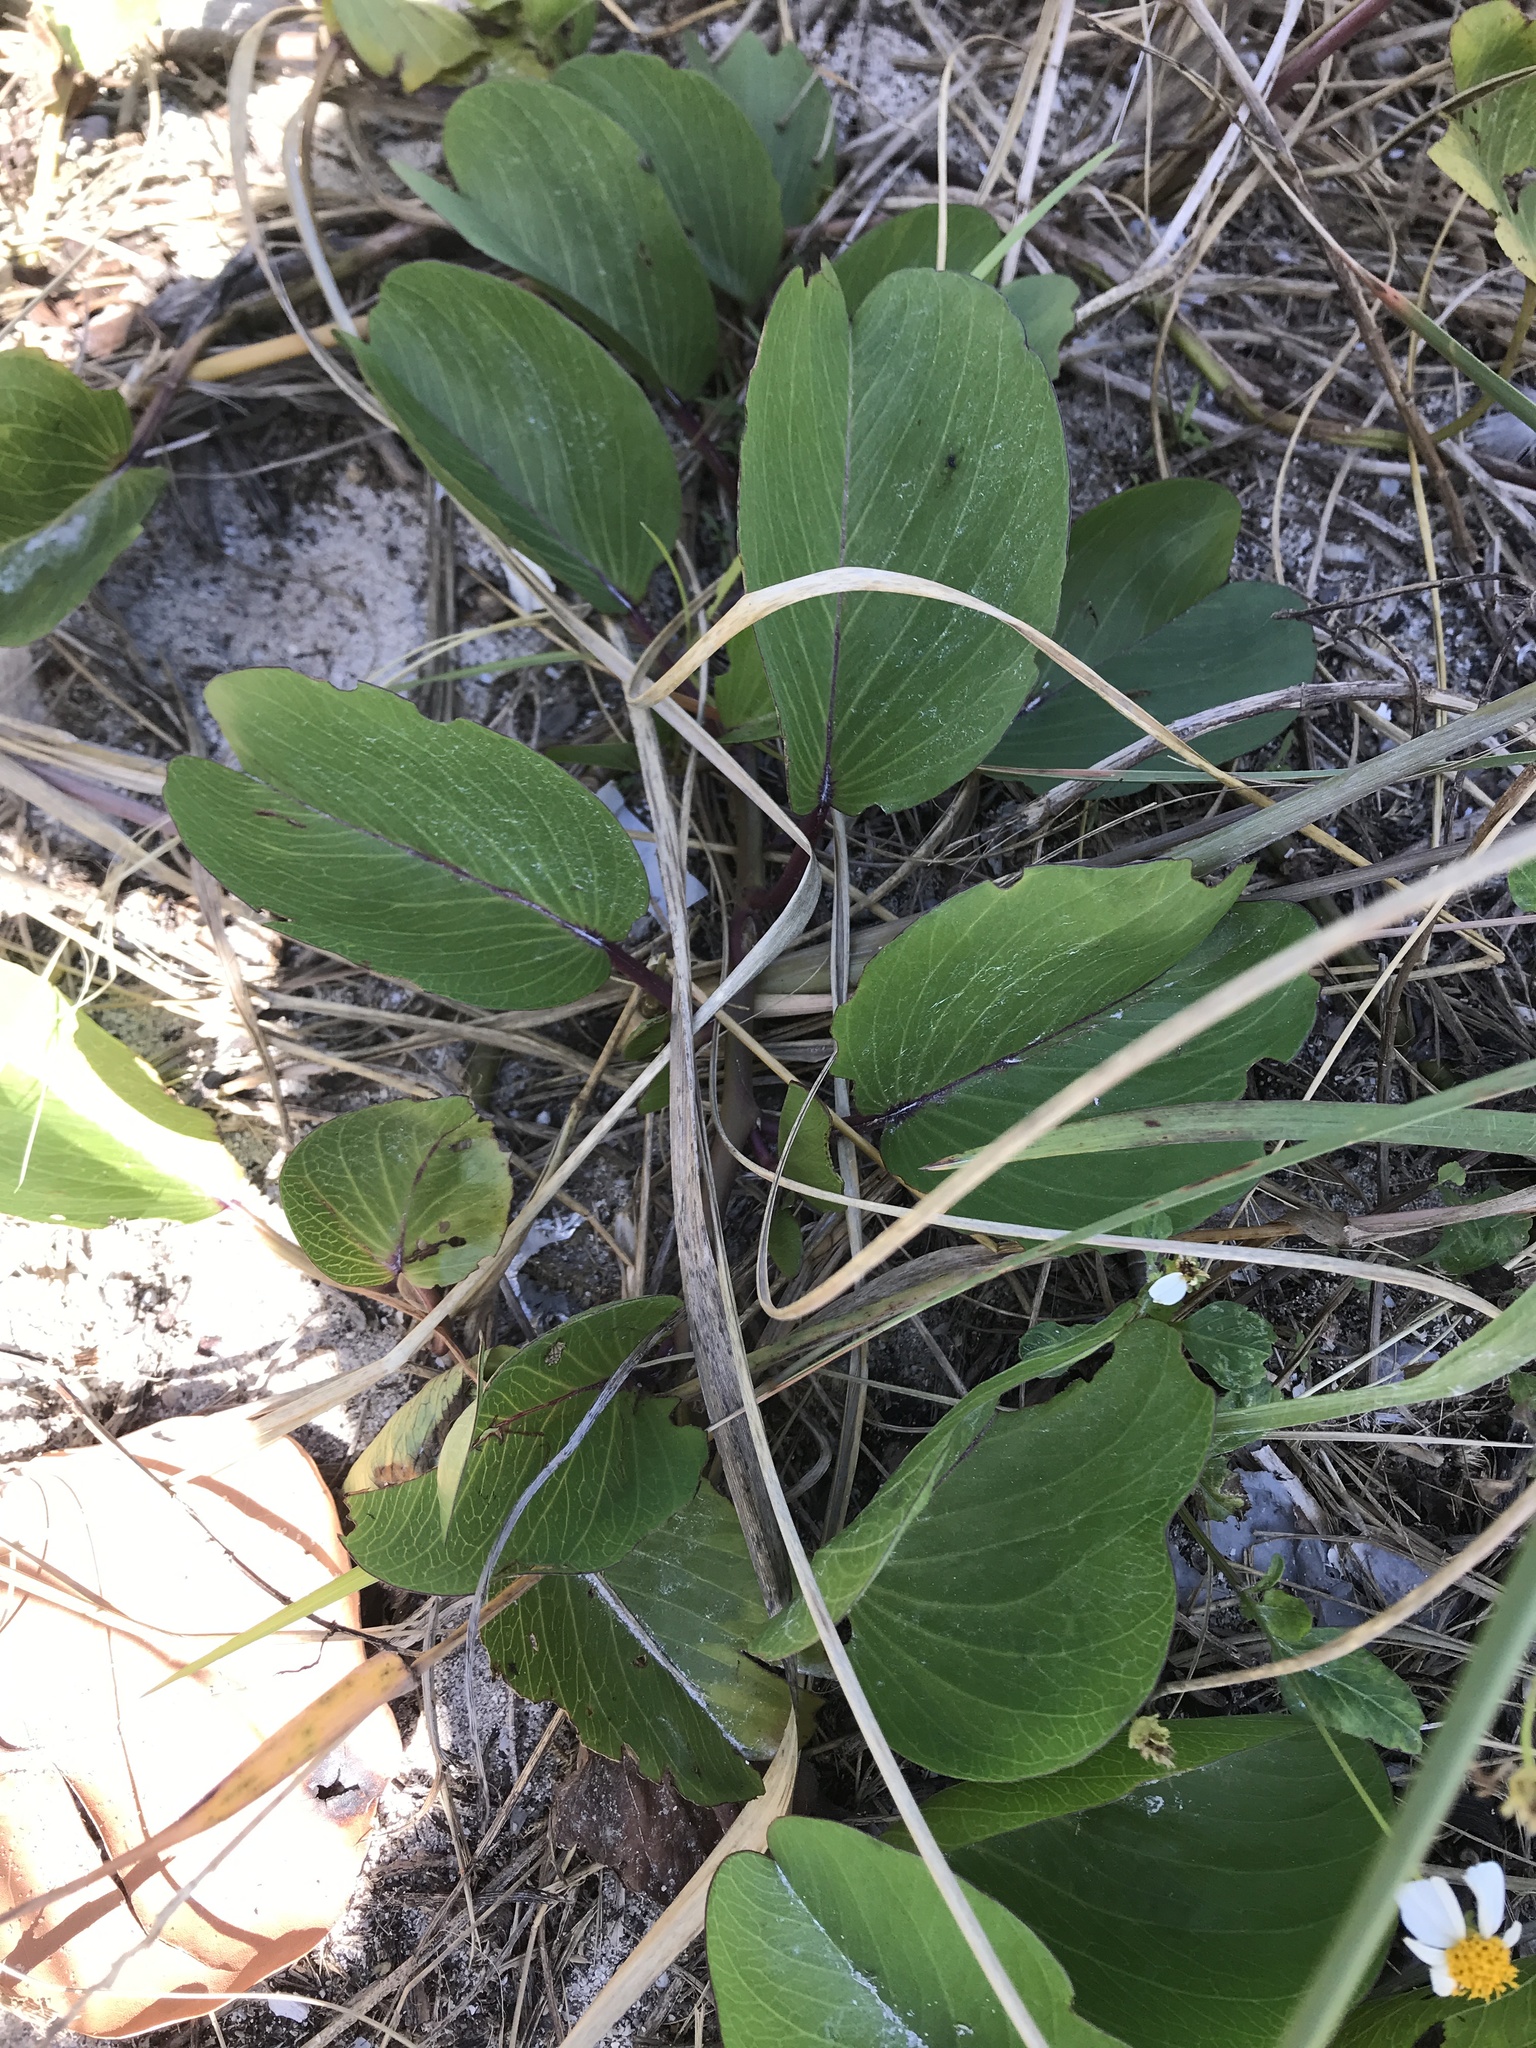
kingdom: Plantae
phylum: Tracheophyta
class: Magnoliopsida
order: Solanales
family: Convolvulaceae
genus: Ipomoea
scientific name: Ipomoea pes-caprae
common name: Beach morning glory
